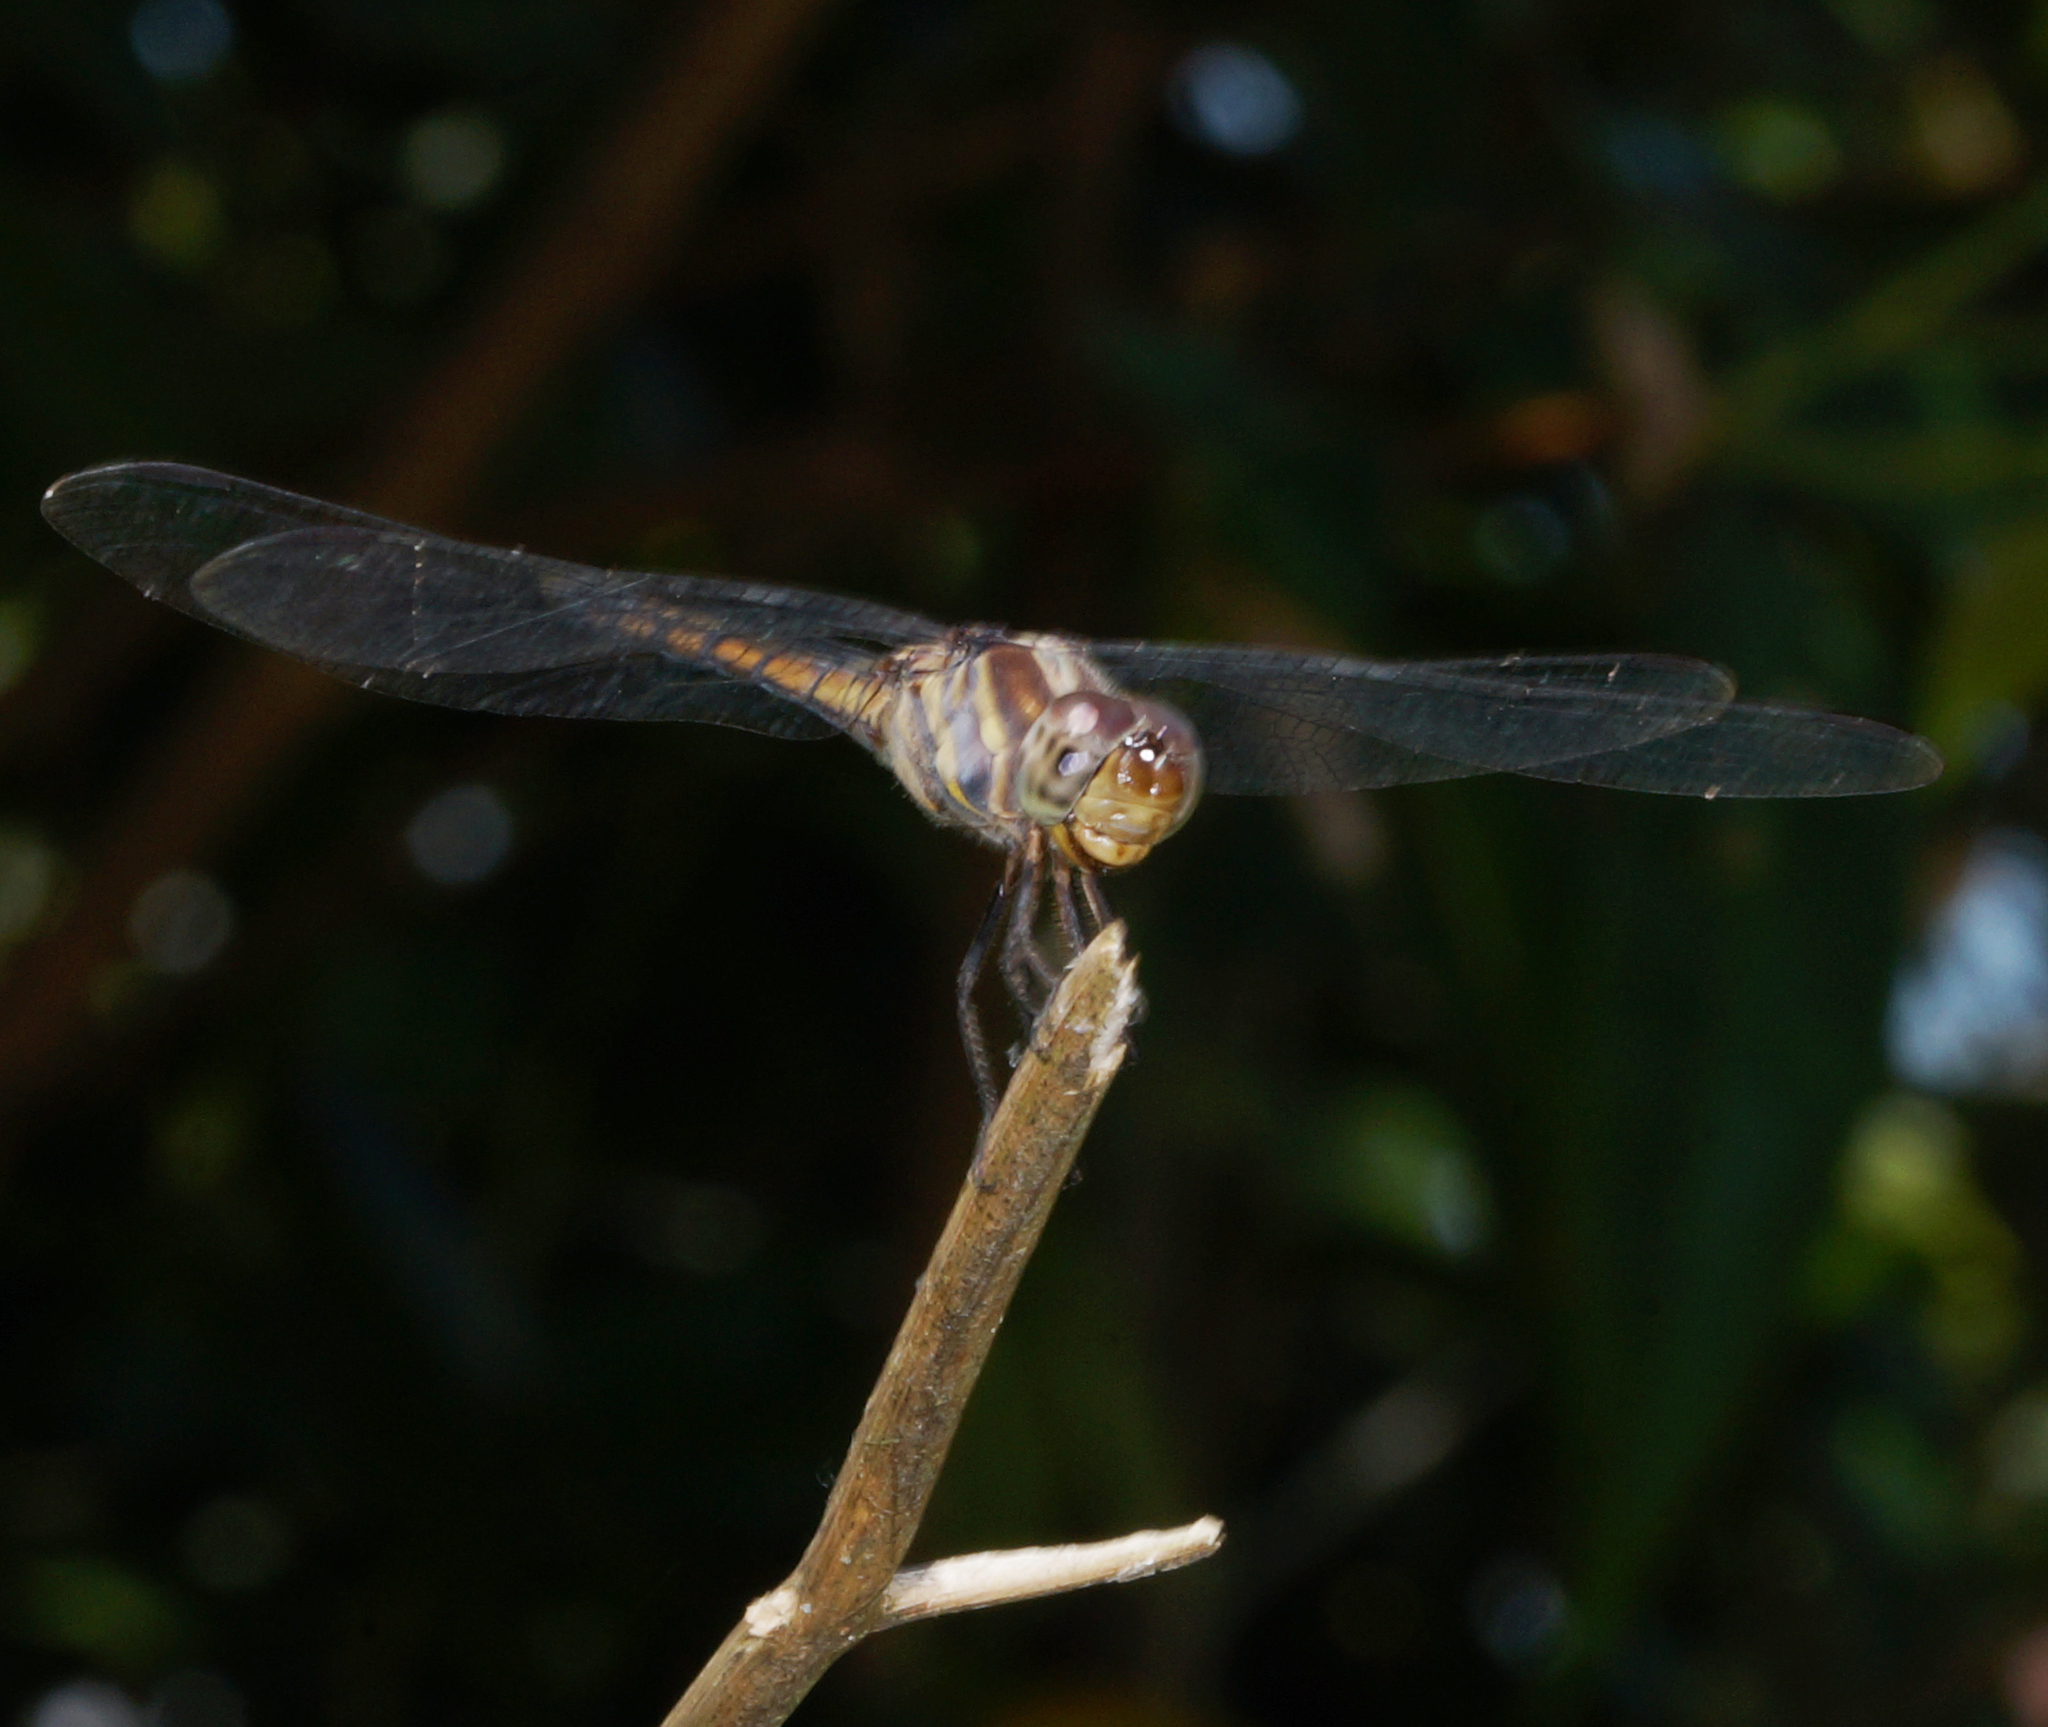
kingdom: Animalia
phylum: Arthropoda
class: Insecta
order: Odonata
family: Libellulidae
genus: Potamarcha
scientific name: Potamarcha congener
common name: Blue chaser
